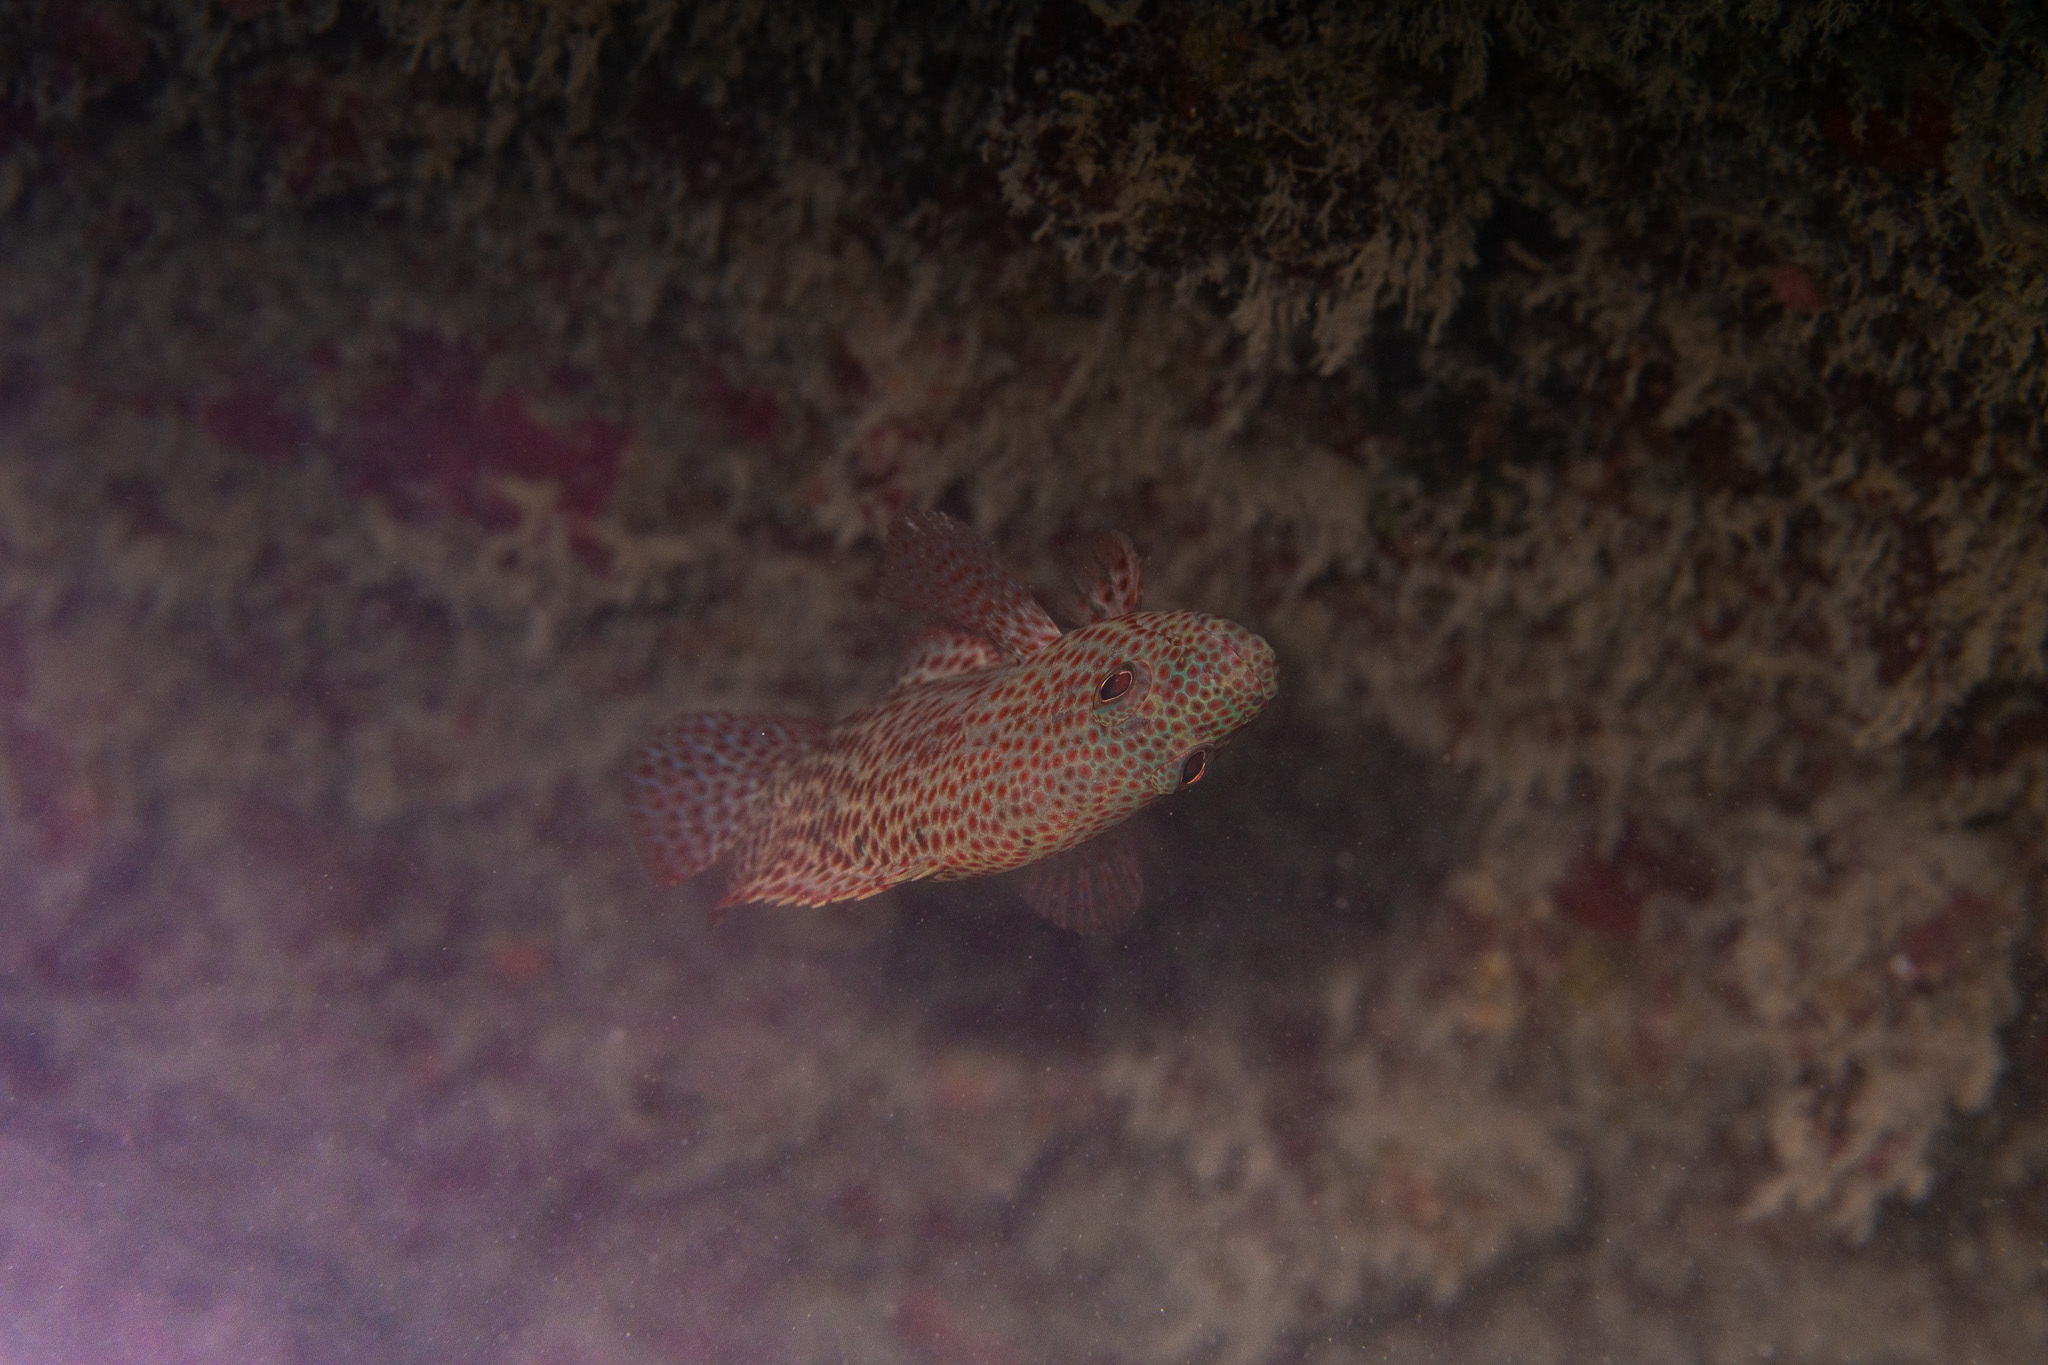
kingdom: Animalia
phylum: Chordata
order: Perciformes
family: Serranidae
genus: Cephalopholis
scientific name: Cephalopholis cruentata
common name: Graysby
